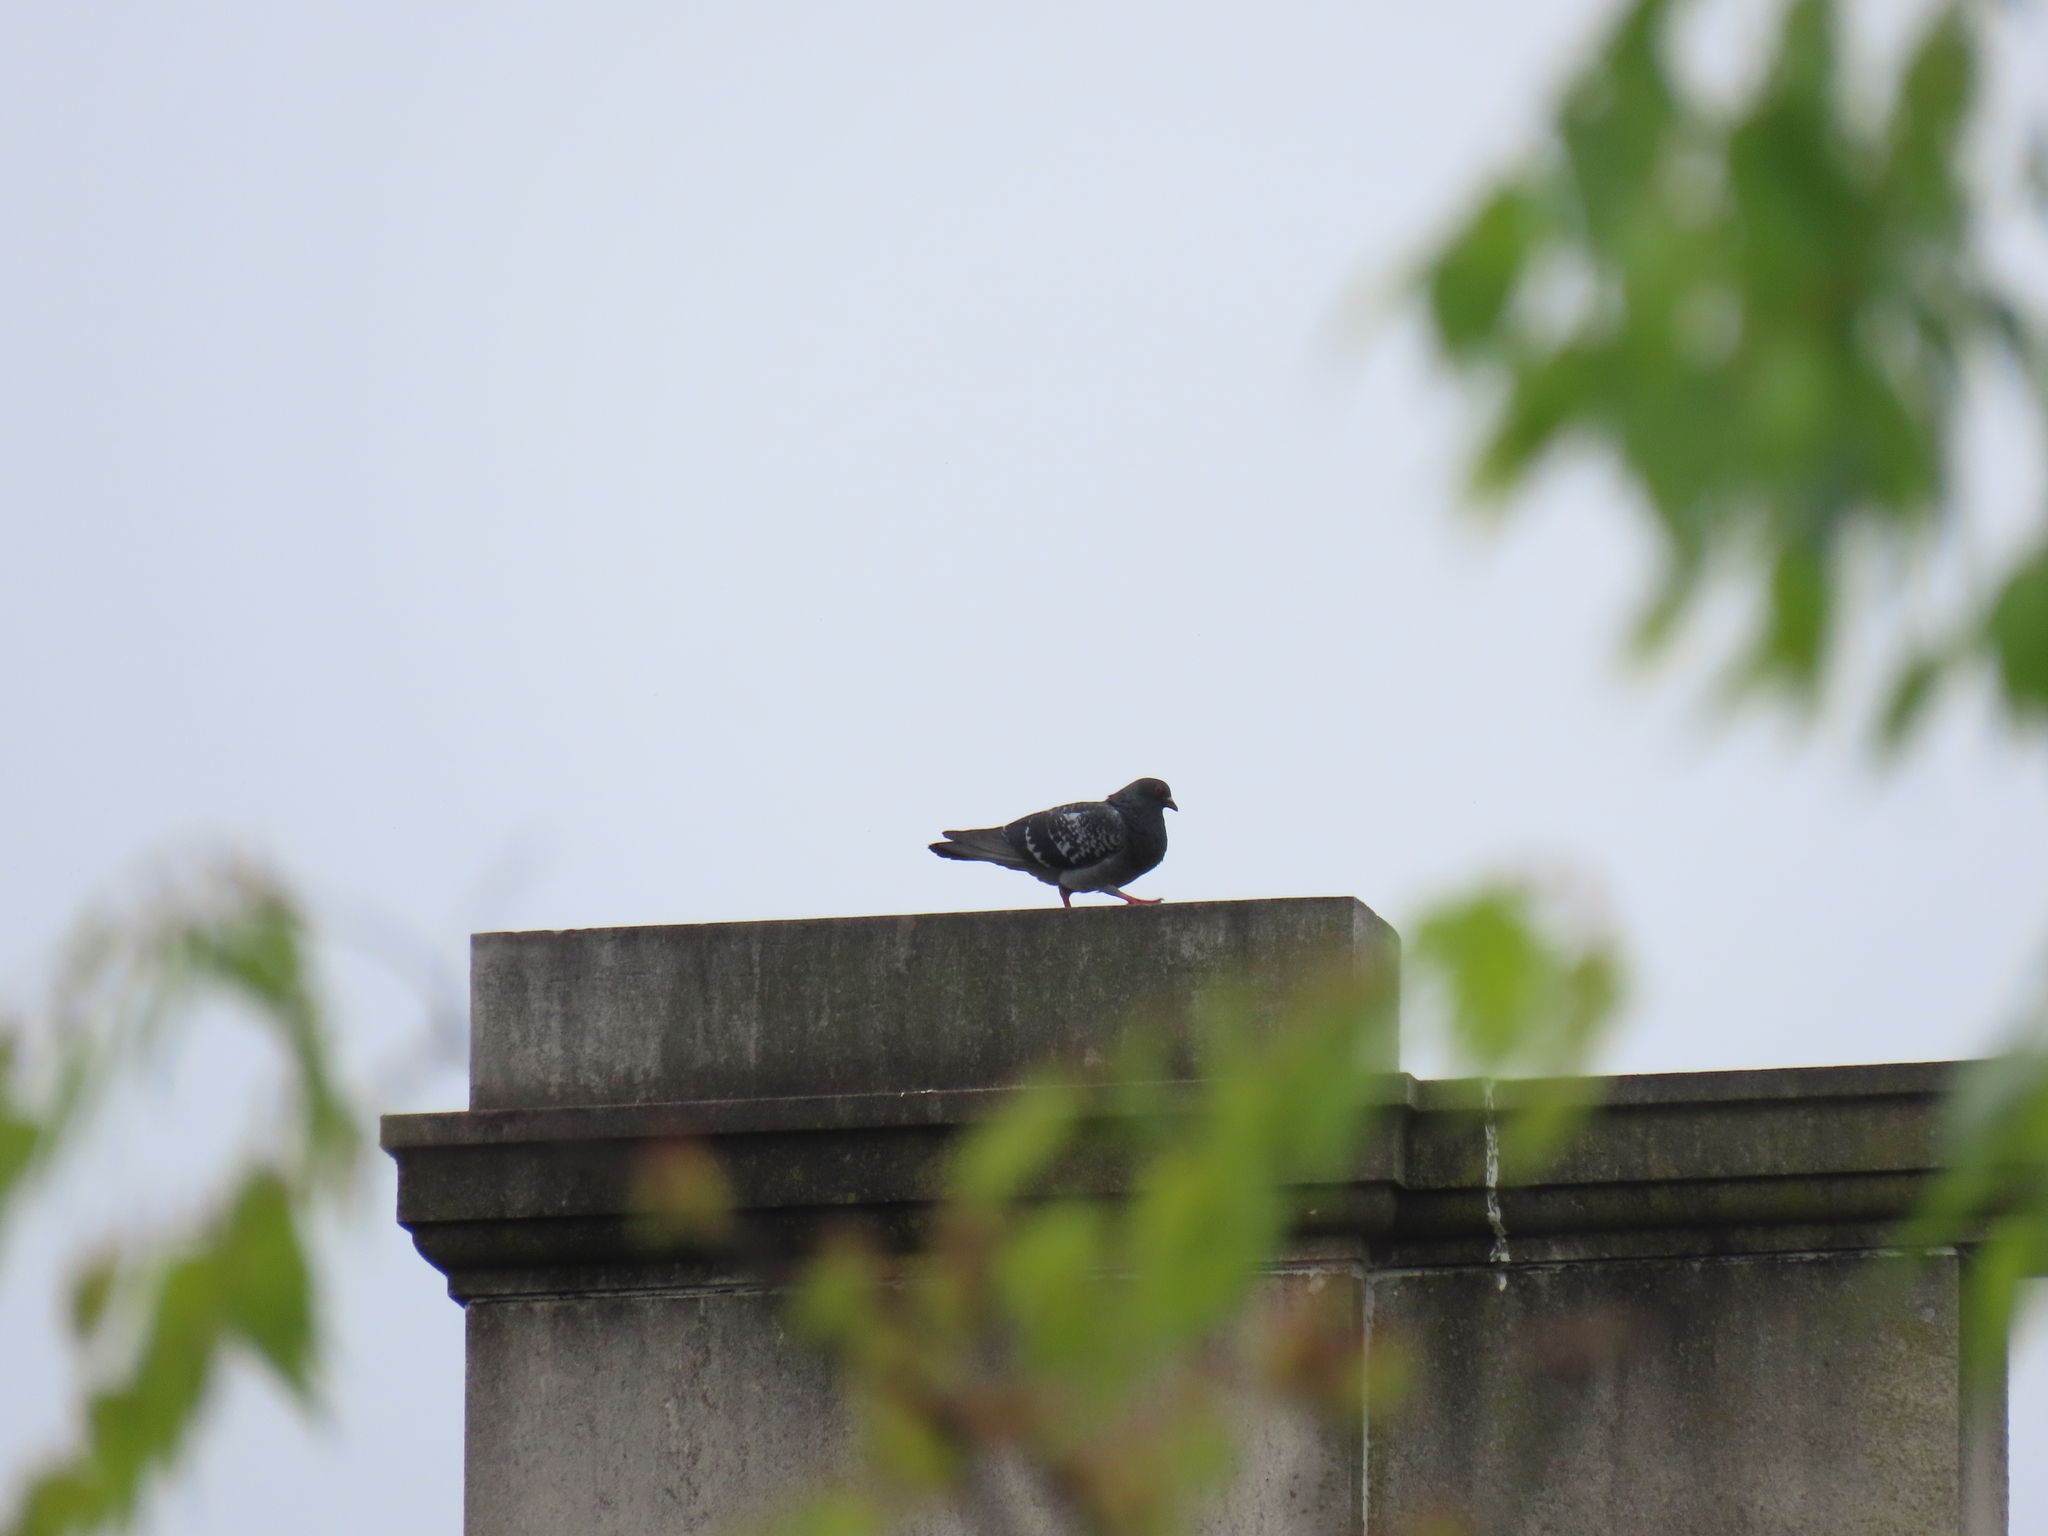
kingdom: Animalia
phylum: Chordata
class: Aves
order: Columbiformes
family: Columbidae
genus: Columba
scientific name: Columba livia
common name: Rock pigeon
